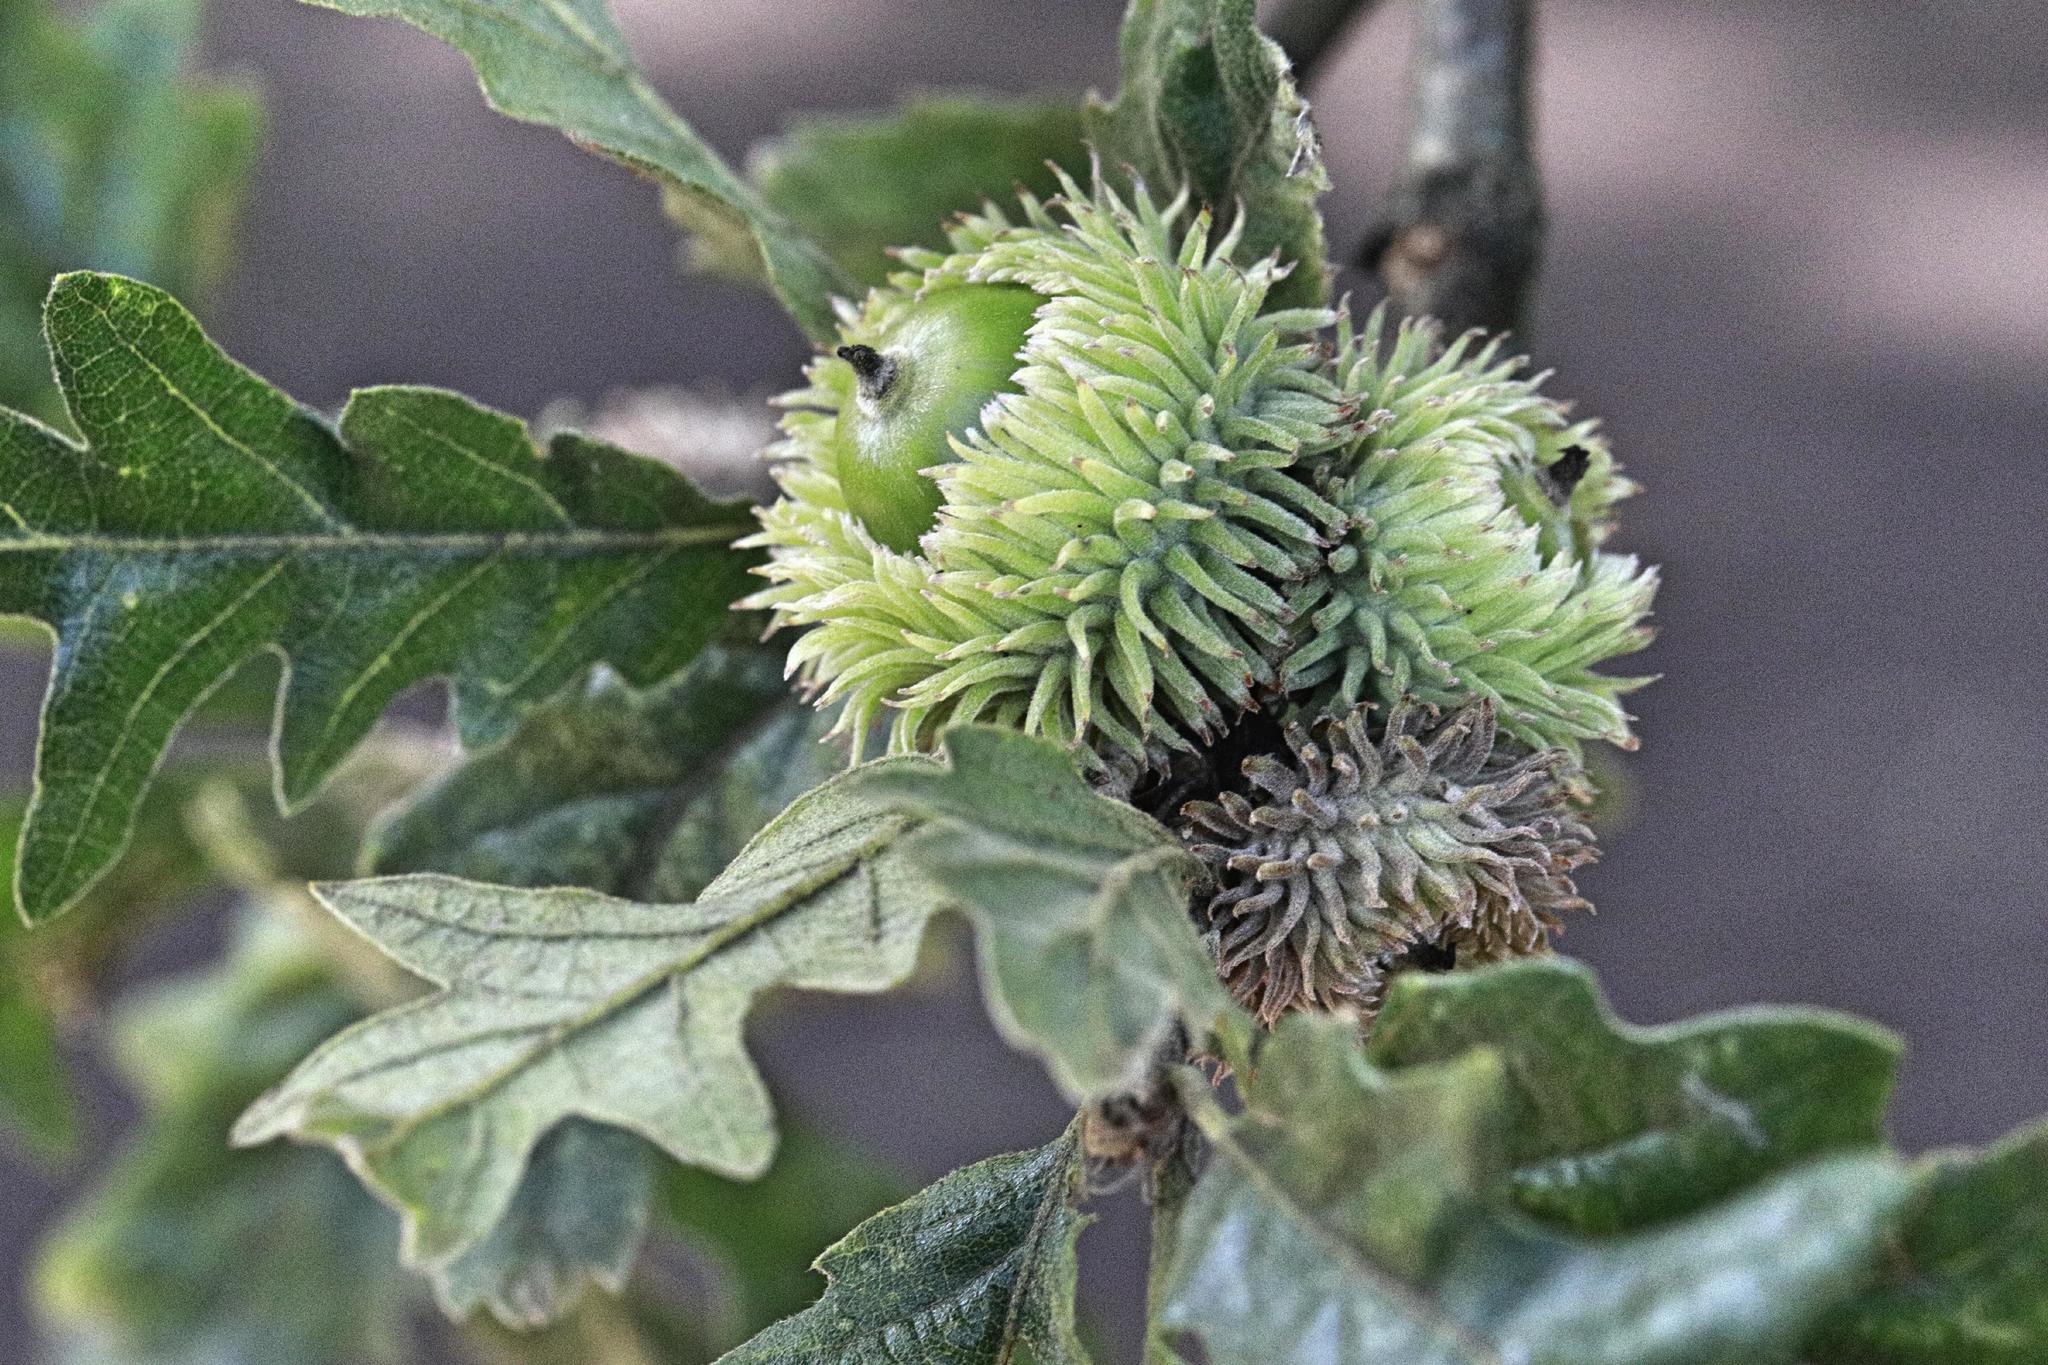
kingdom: Plantae
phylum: Tracheophyta
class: Magnoliopsida
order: Fagales
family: Fagaceae
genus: Quercus
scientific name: Quercus cerris
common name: Turkey oak
